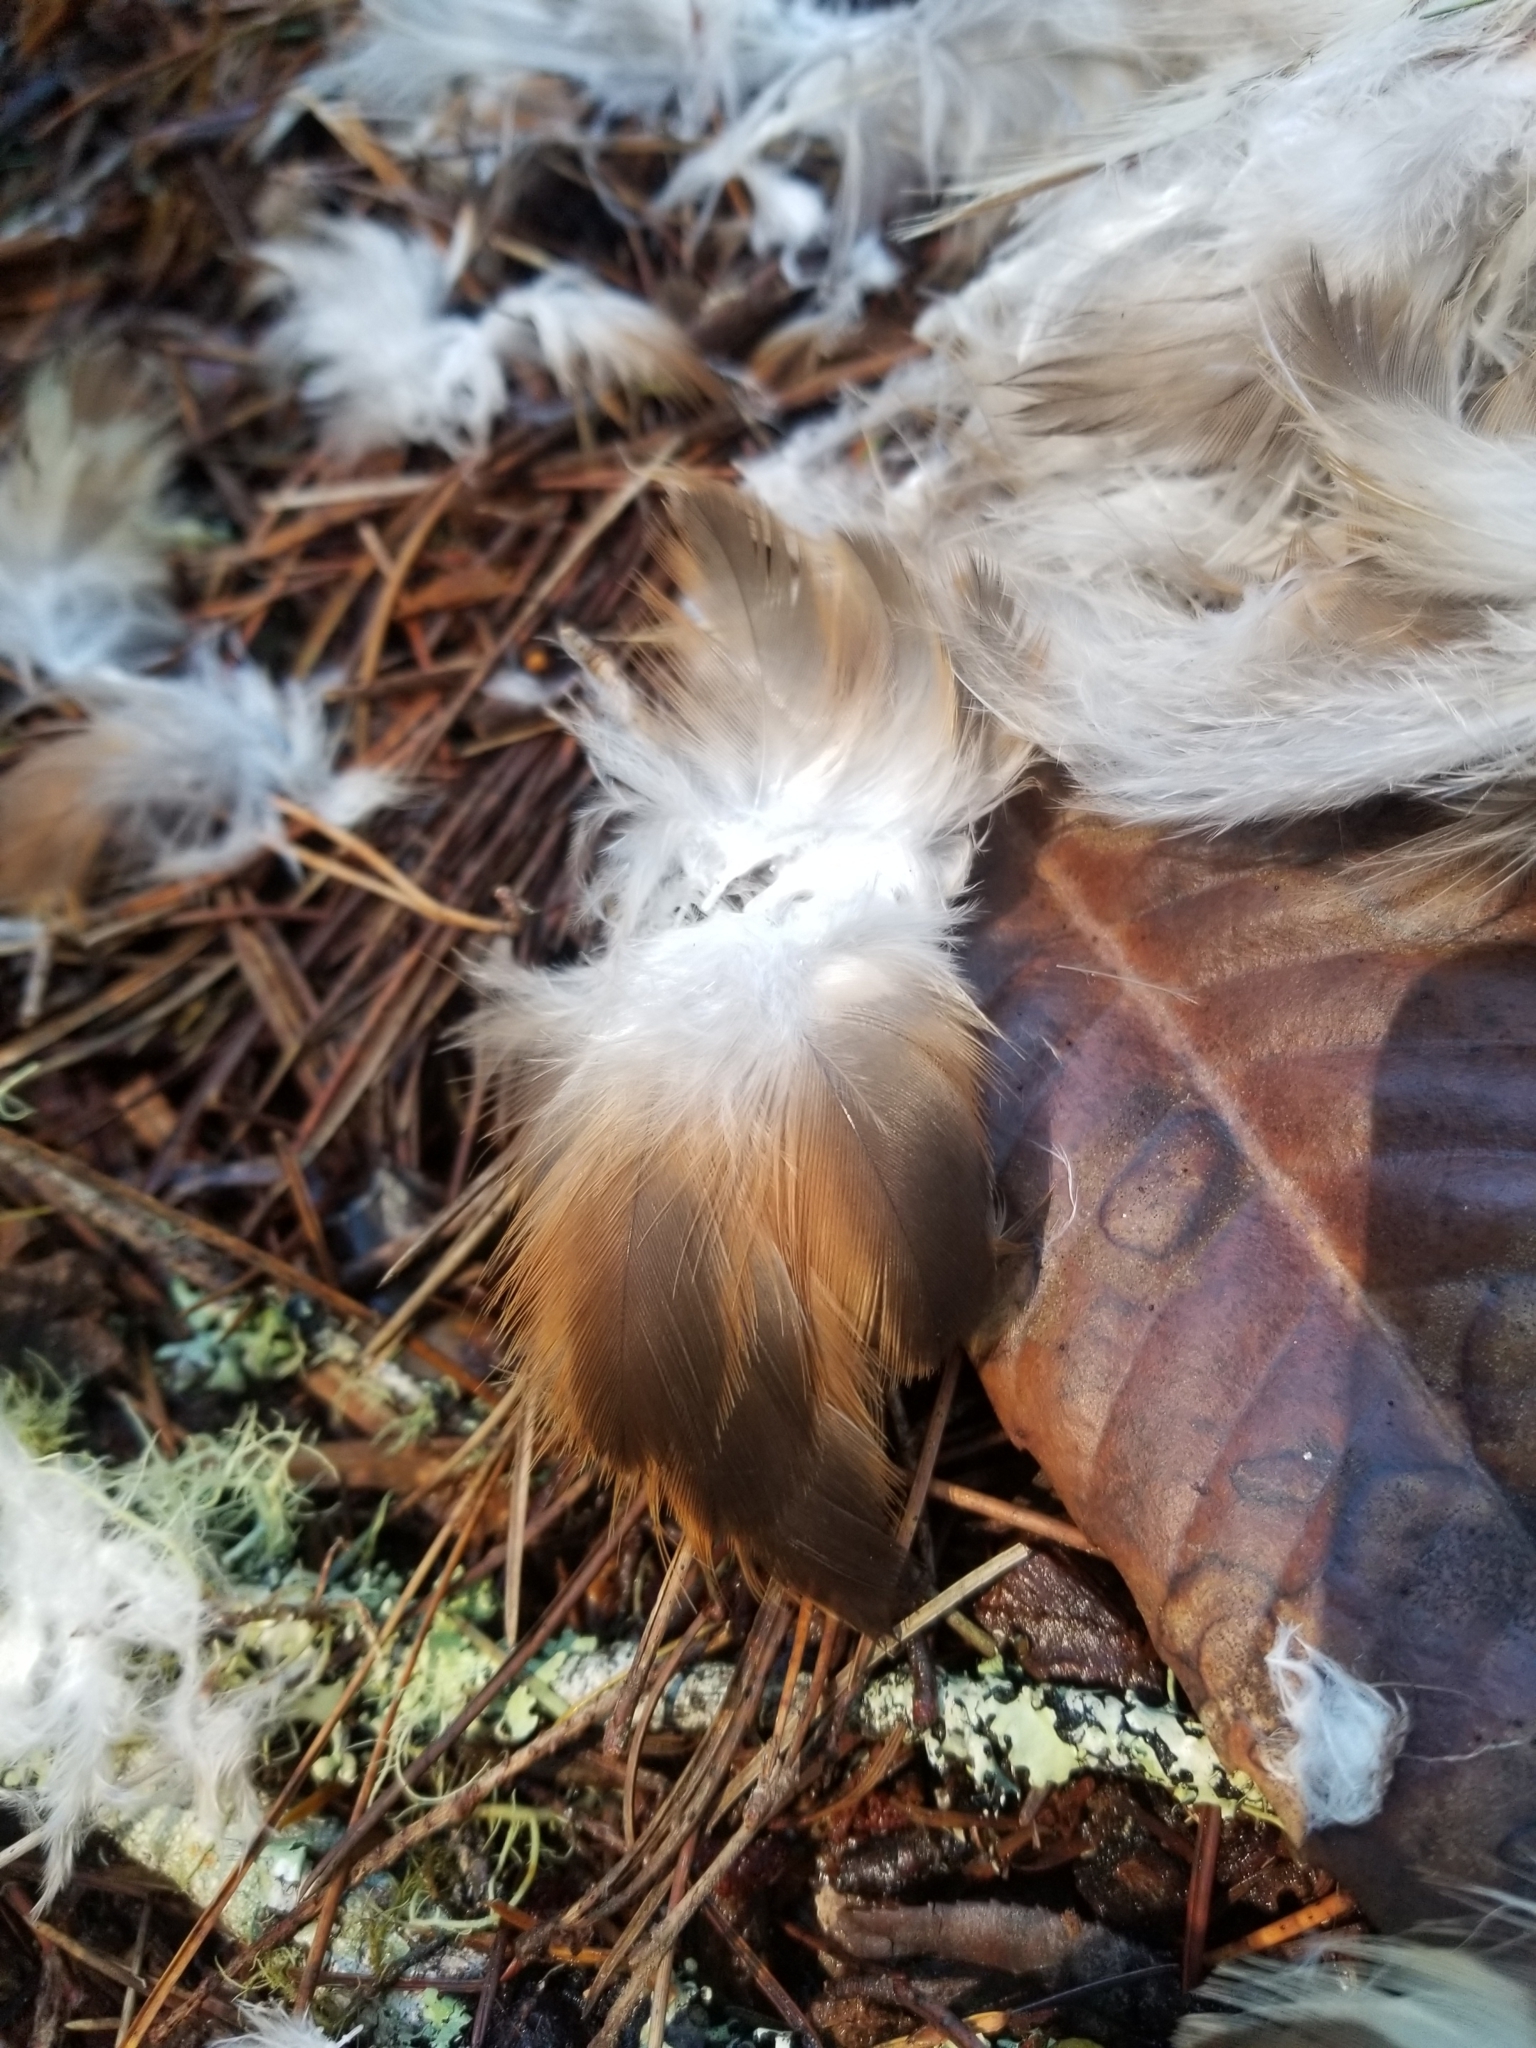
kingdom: Animalia
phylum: Chordata
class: Aves
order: Accipitriformes
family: Accipitridae
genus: Buteo
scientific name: Buteo lineatus
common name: Red-shouldered hawk
